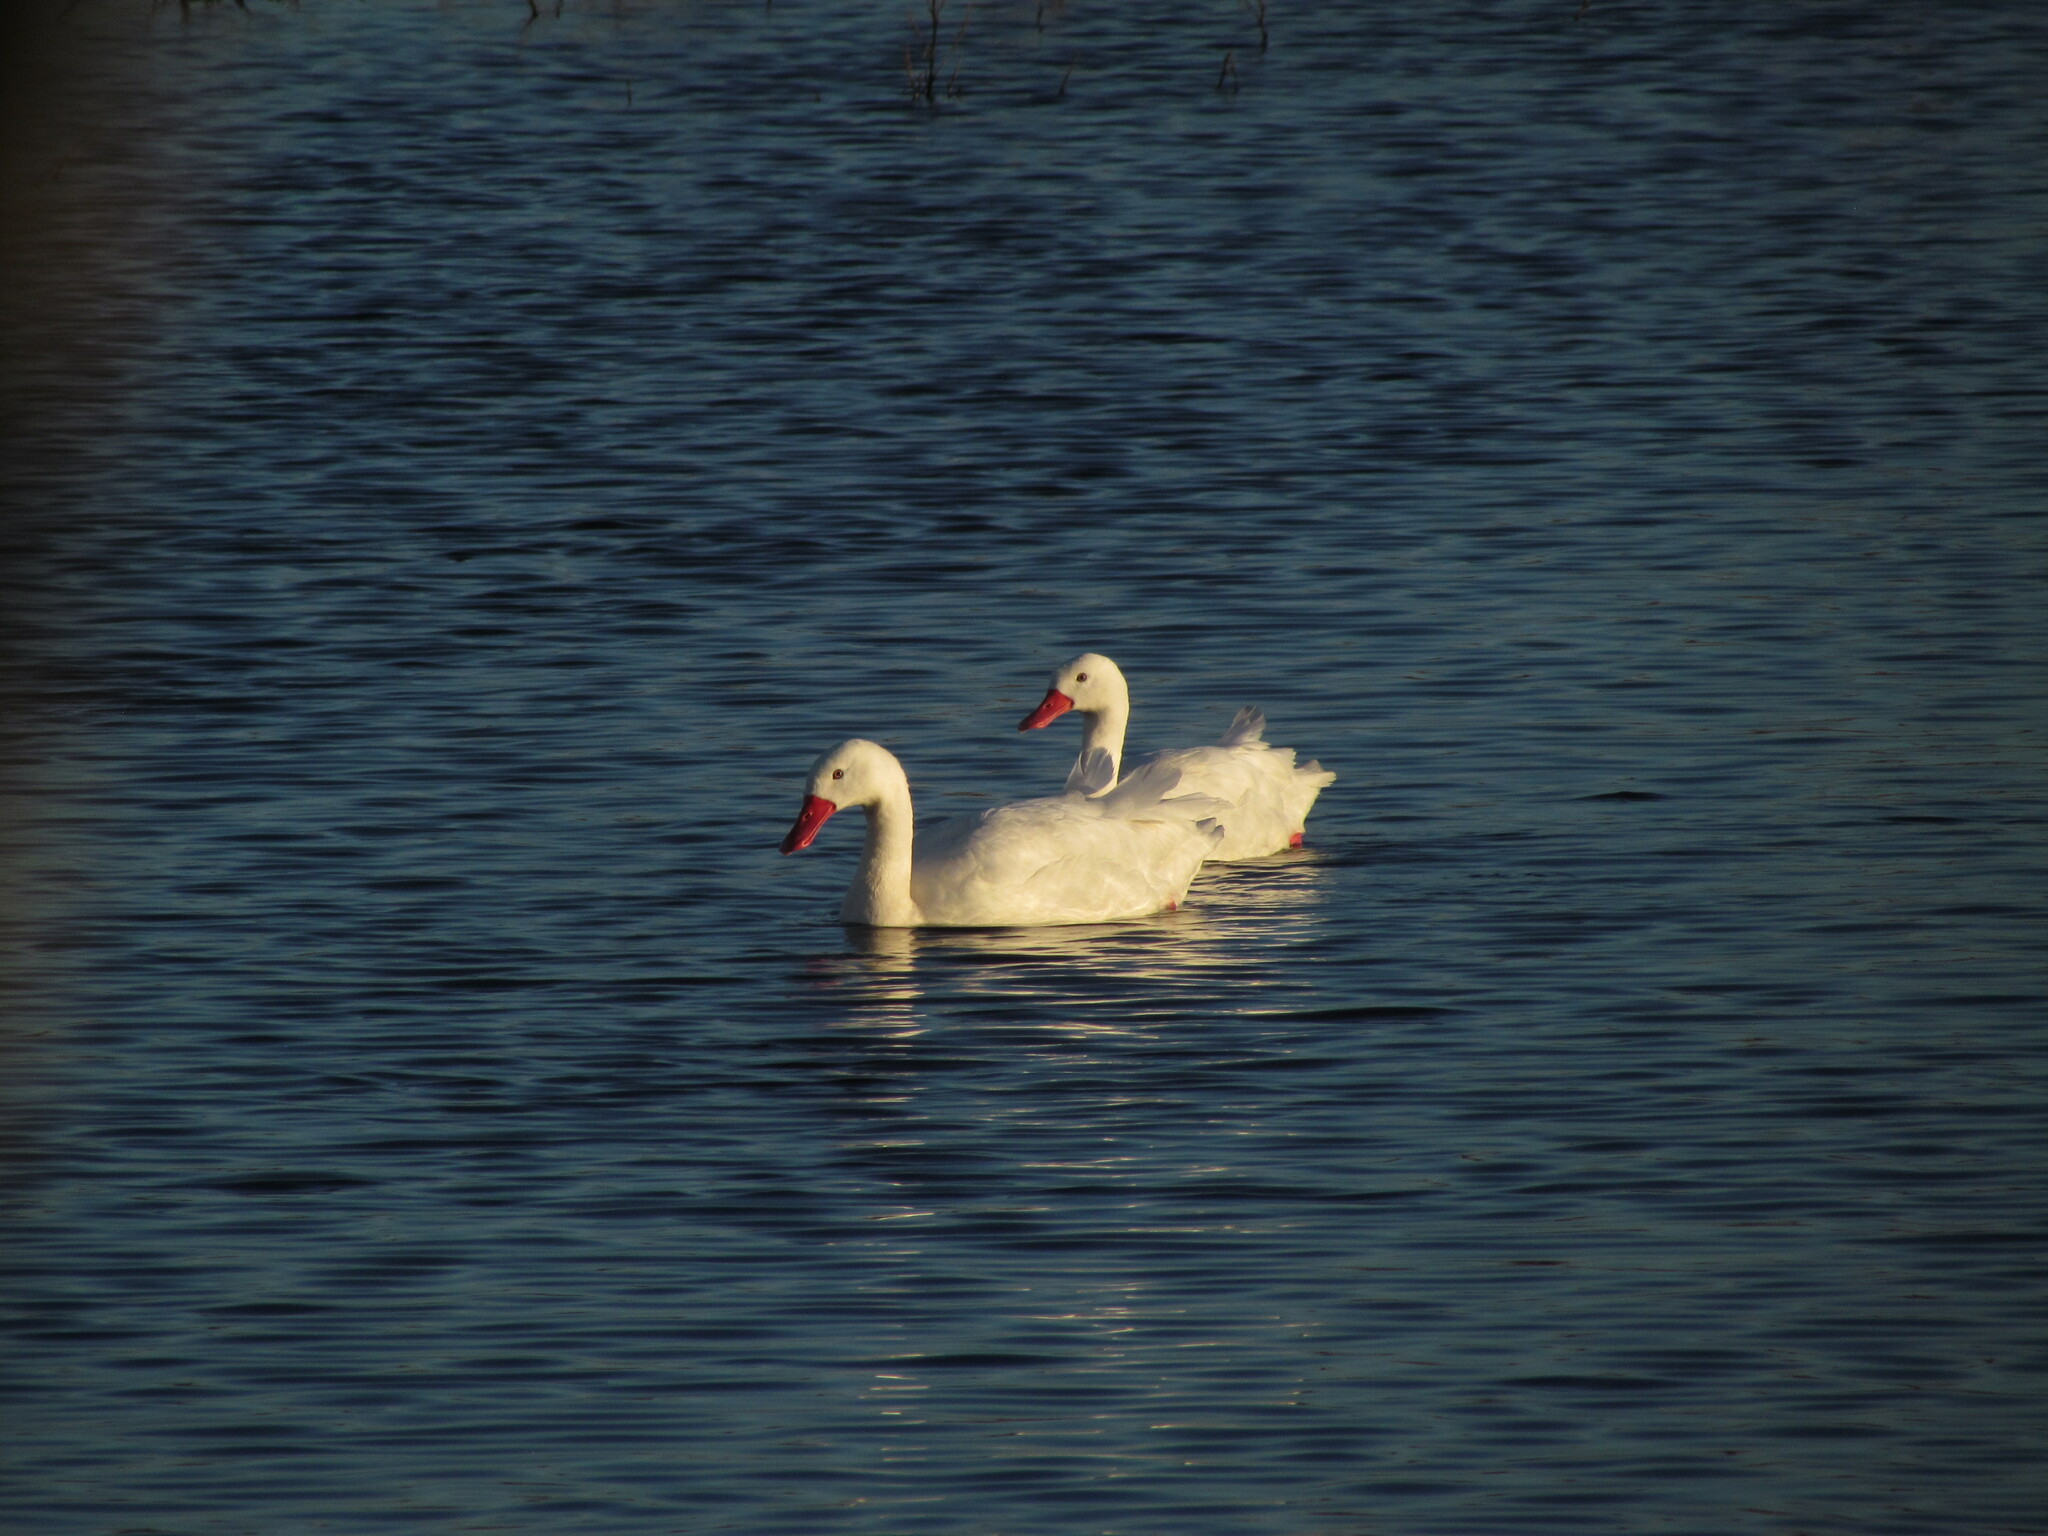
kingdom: Animalia
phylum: Chordata
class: Aves
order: Anseriformes
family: Anatidae
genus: Coscoroba
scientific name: Coscoroba coscoroba
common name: Coscoroba swan
